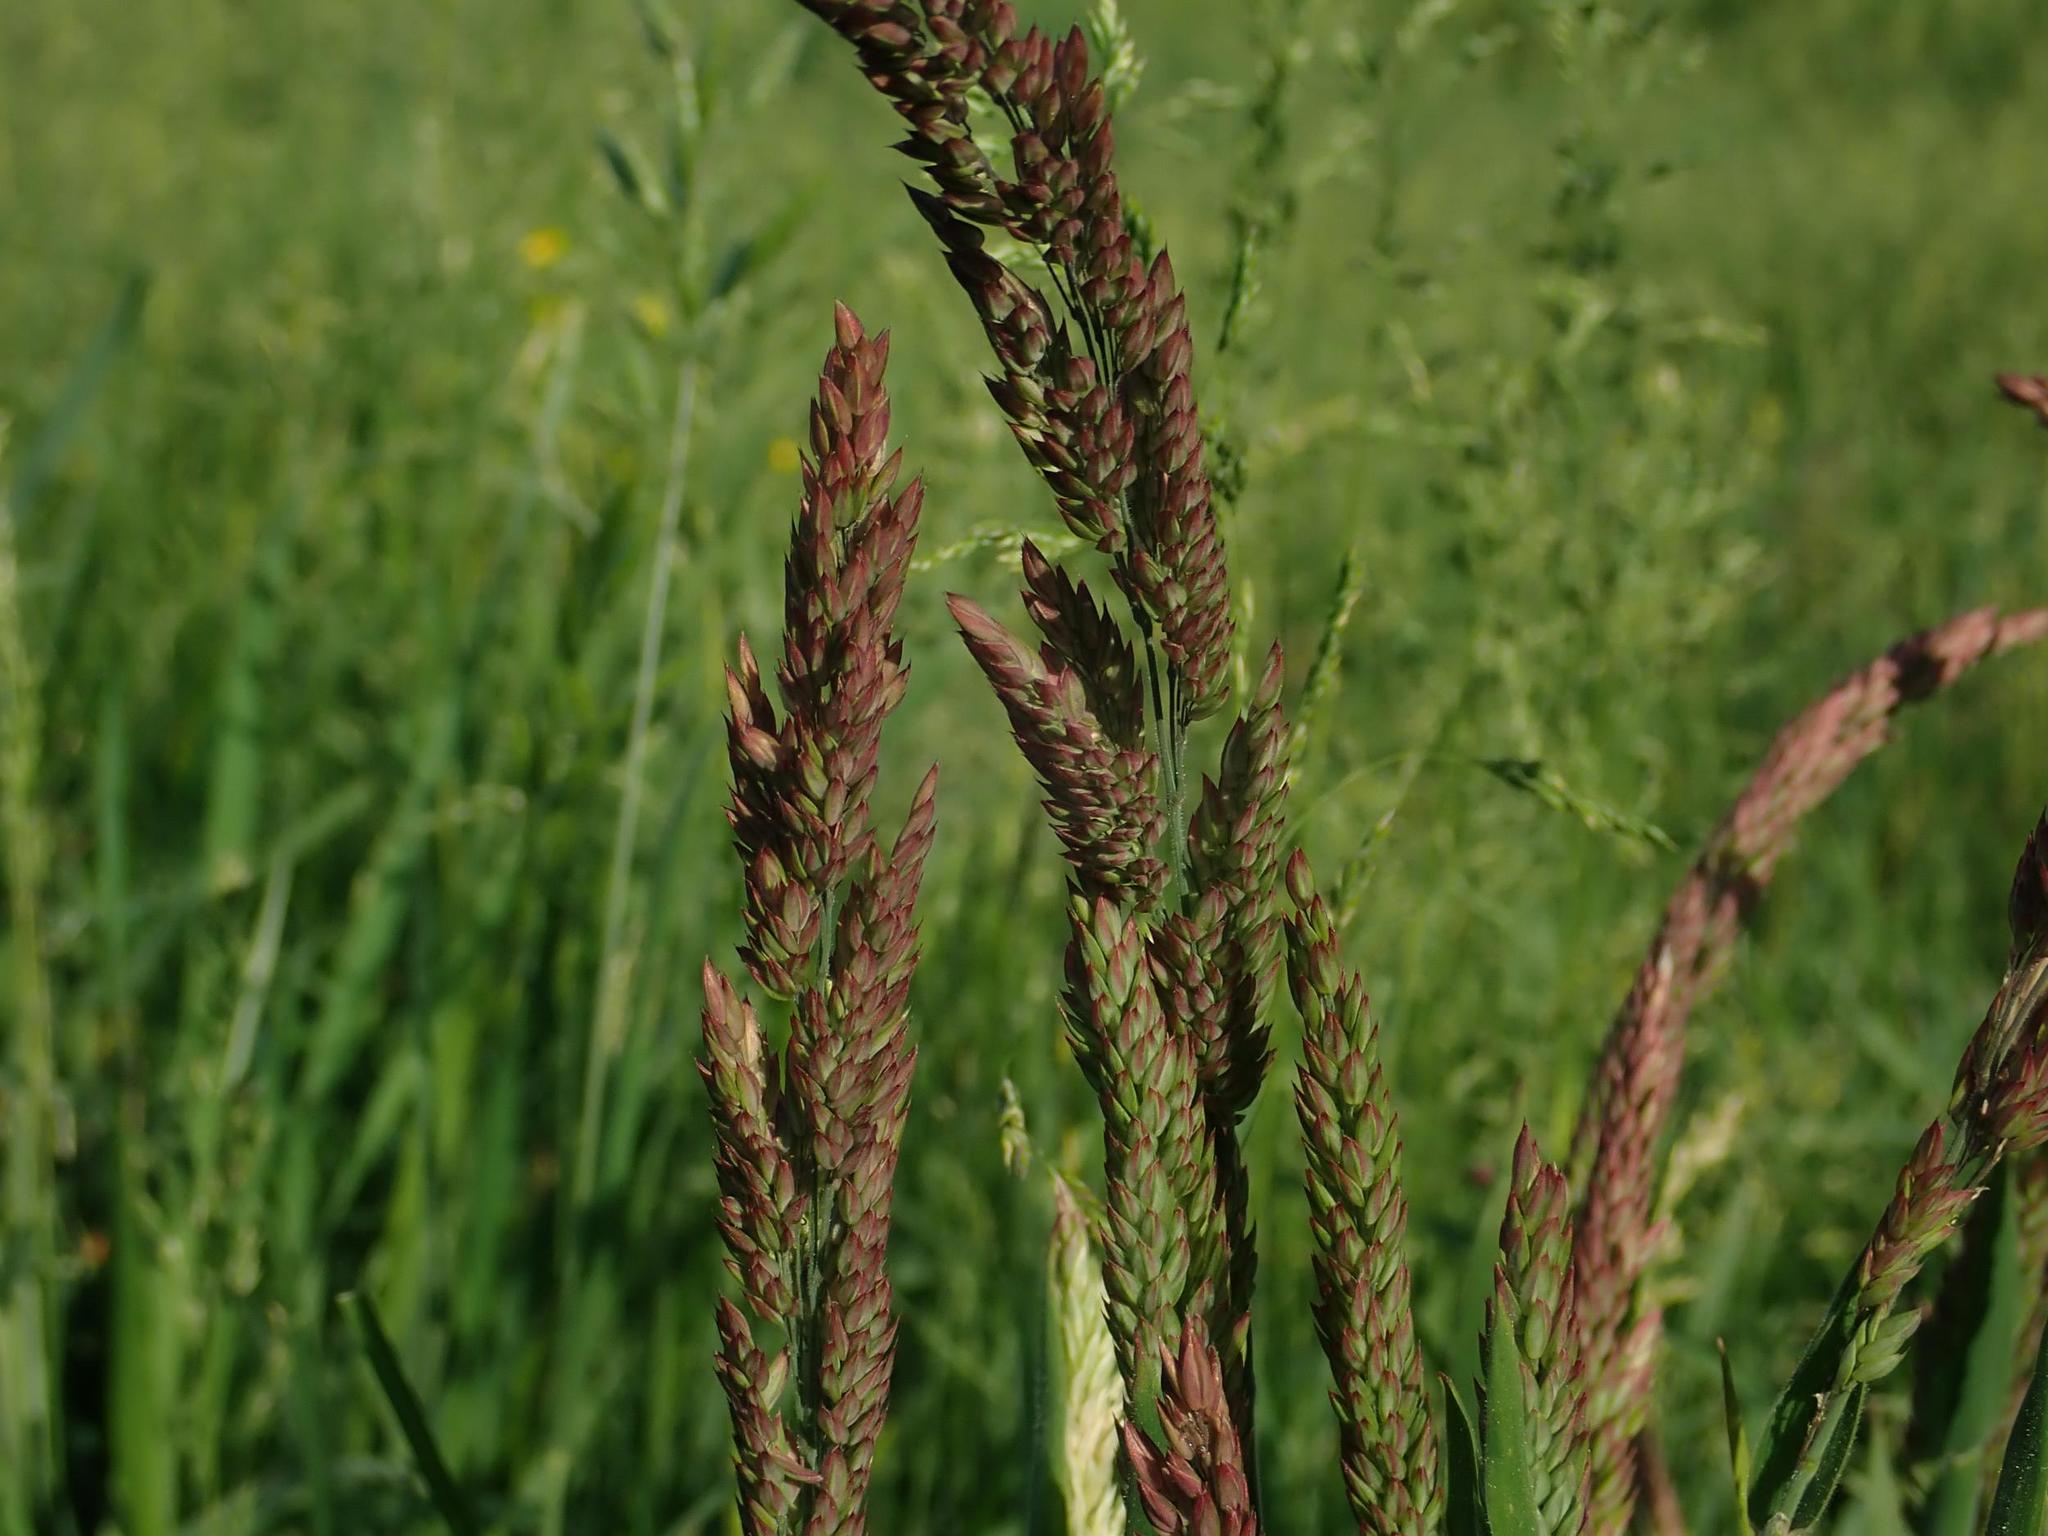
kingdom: Plantae
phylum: Tracheophyta
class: Liliopsida
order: Poales
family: Poaceae
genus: Holcus
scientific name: Holcus lanatus
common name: Yorkshire-fog
